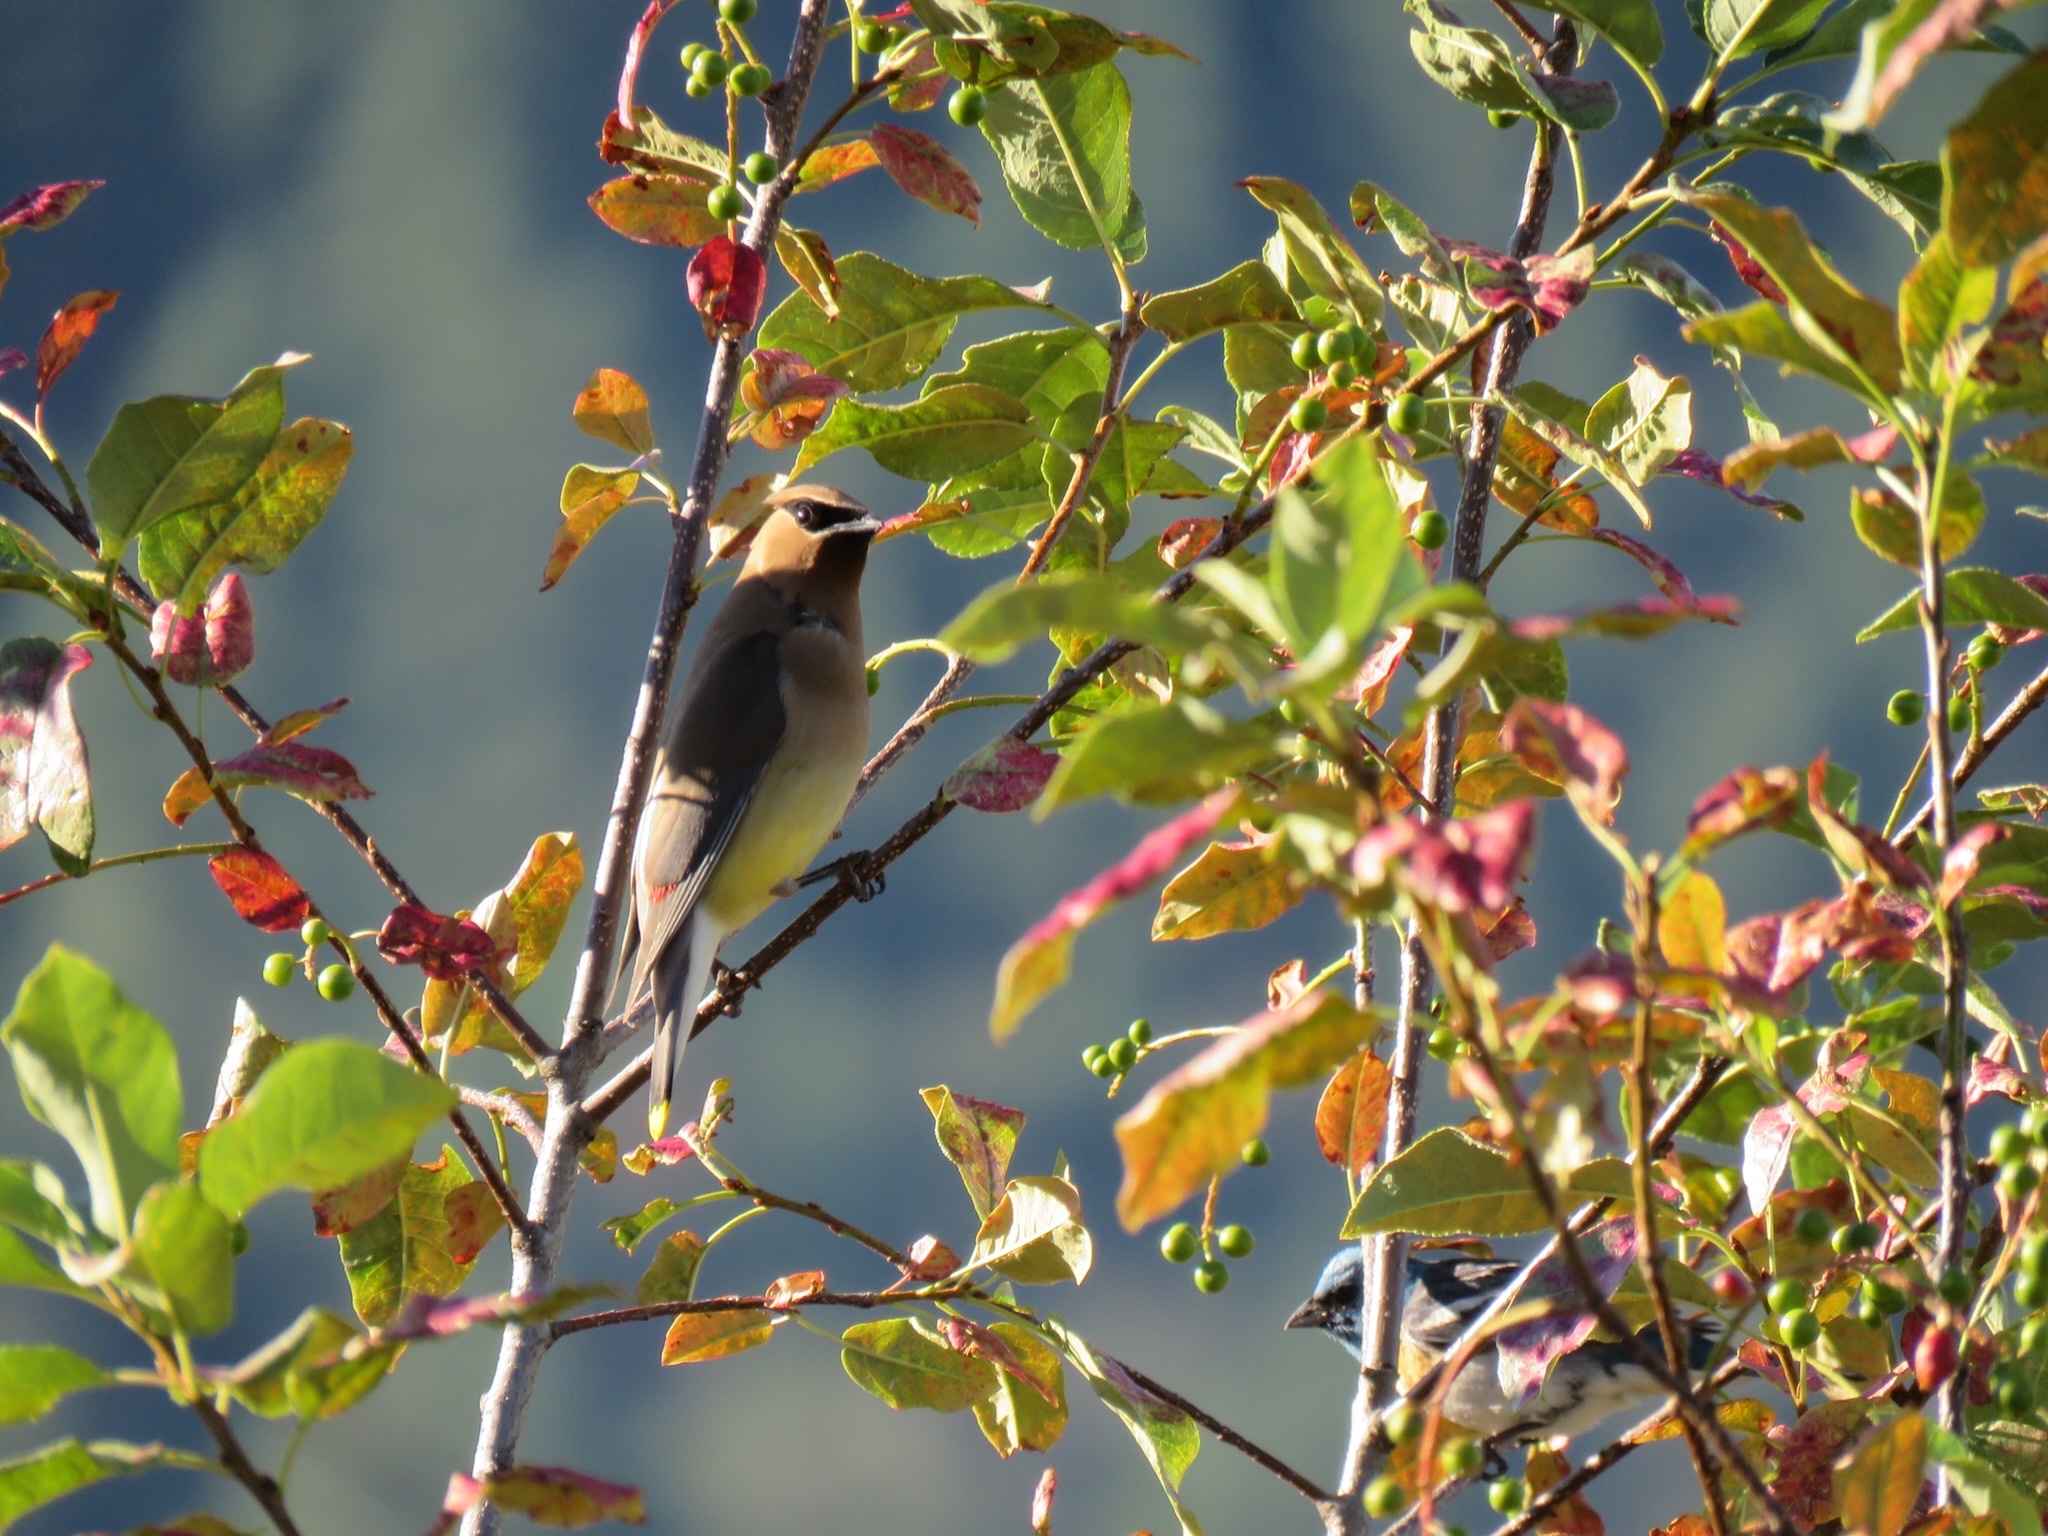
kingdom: Animalia
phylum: Chordata
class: Aves
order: Passeriformes
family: Bombycillidae
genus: Bombycilla
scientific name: Bombycilla cedrorum
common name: Cedar waxwing
